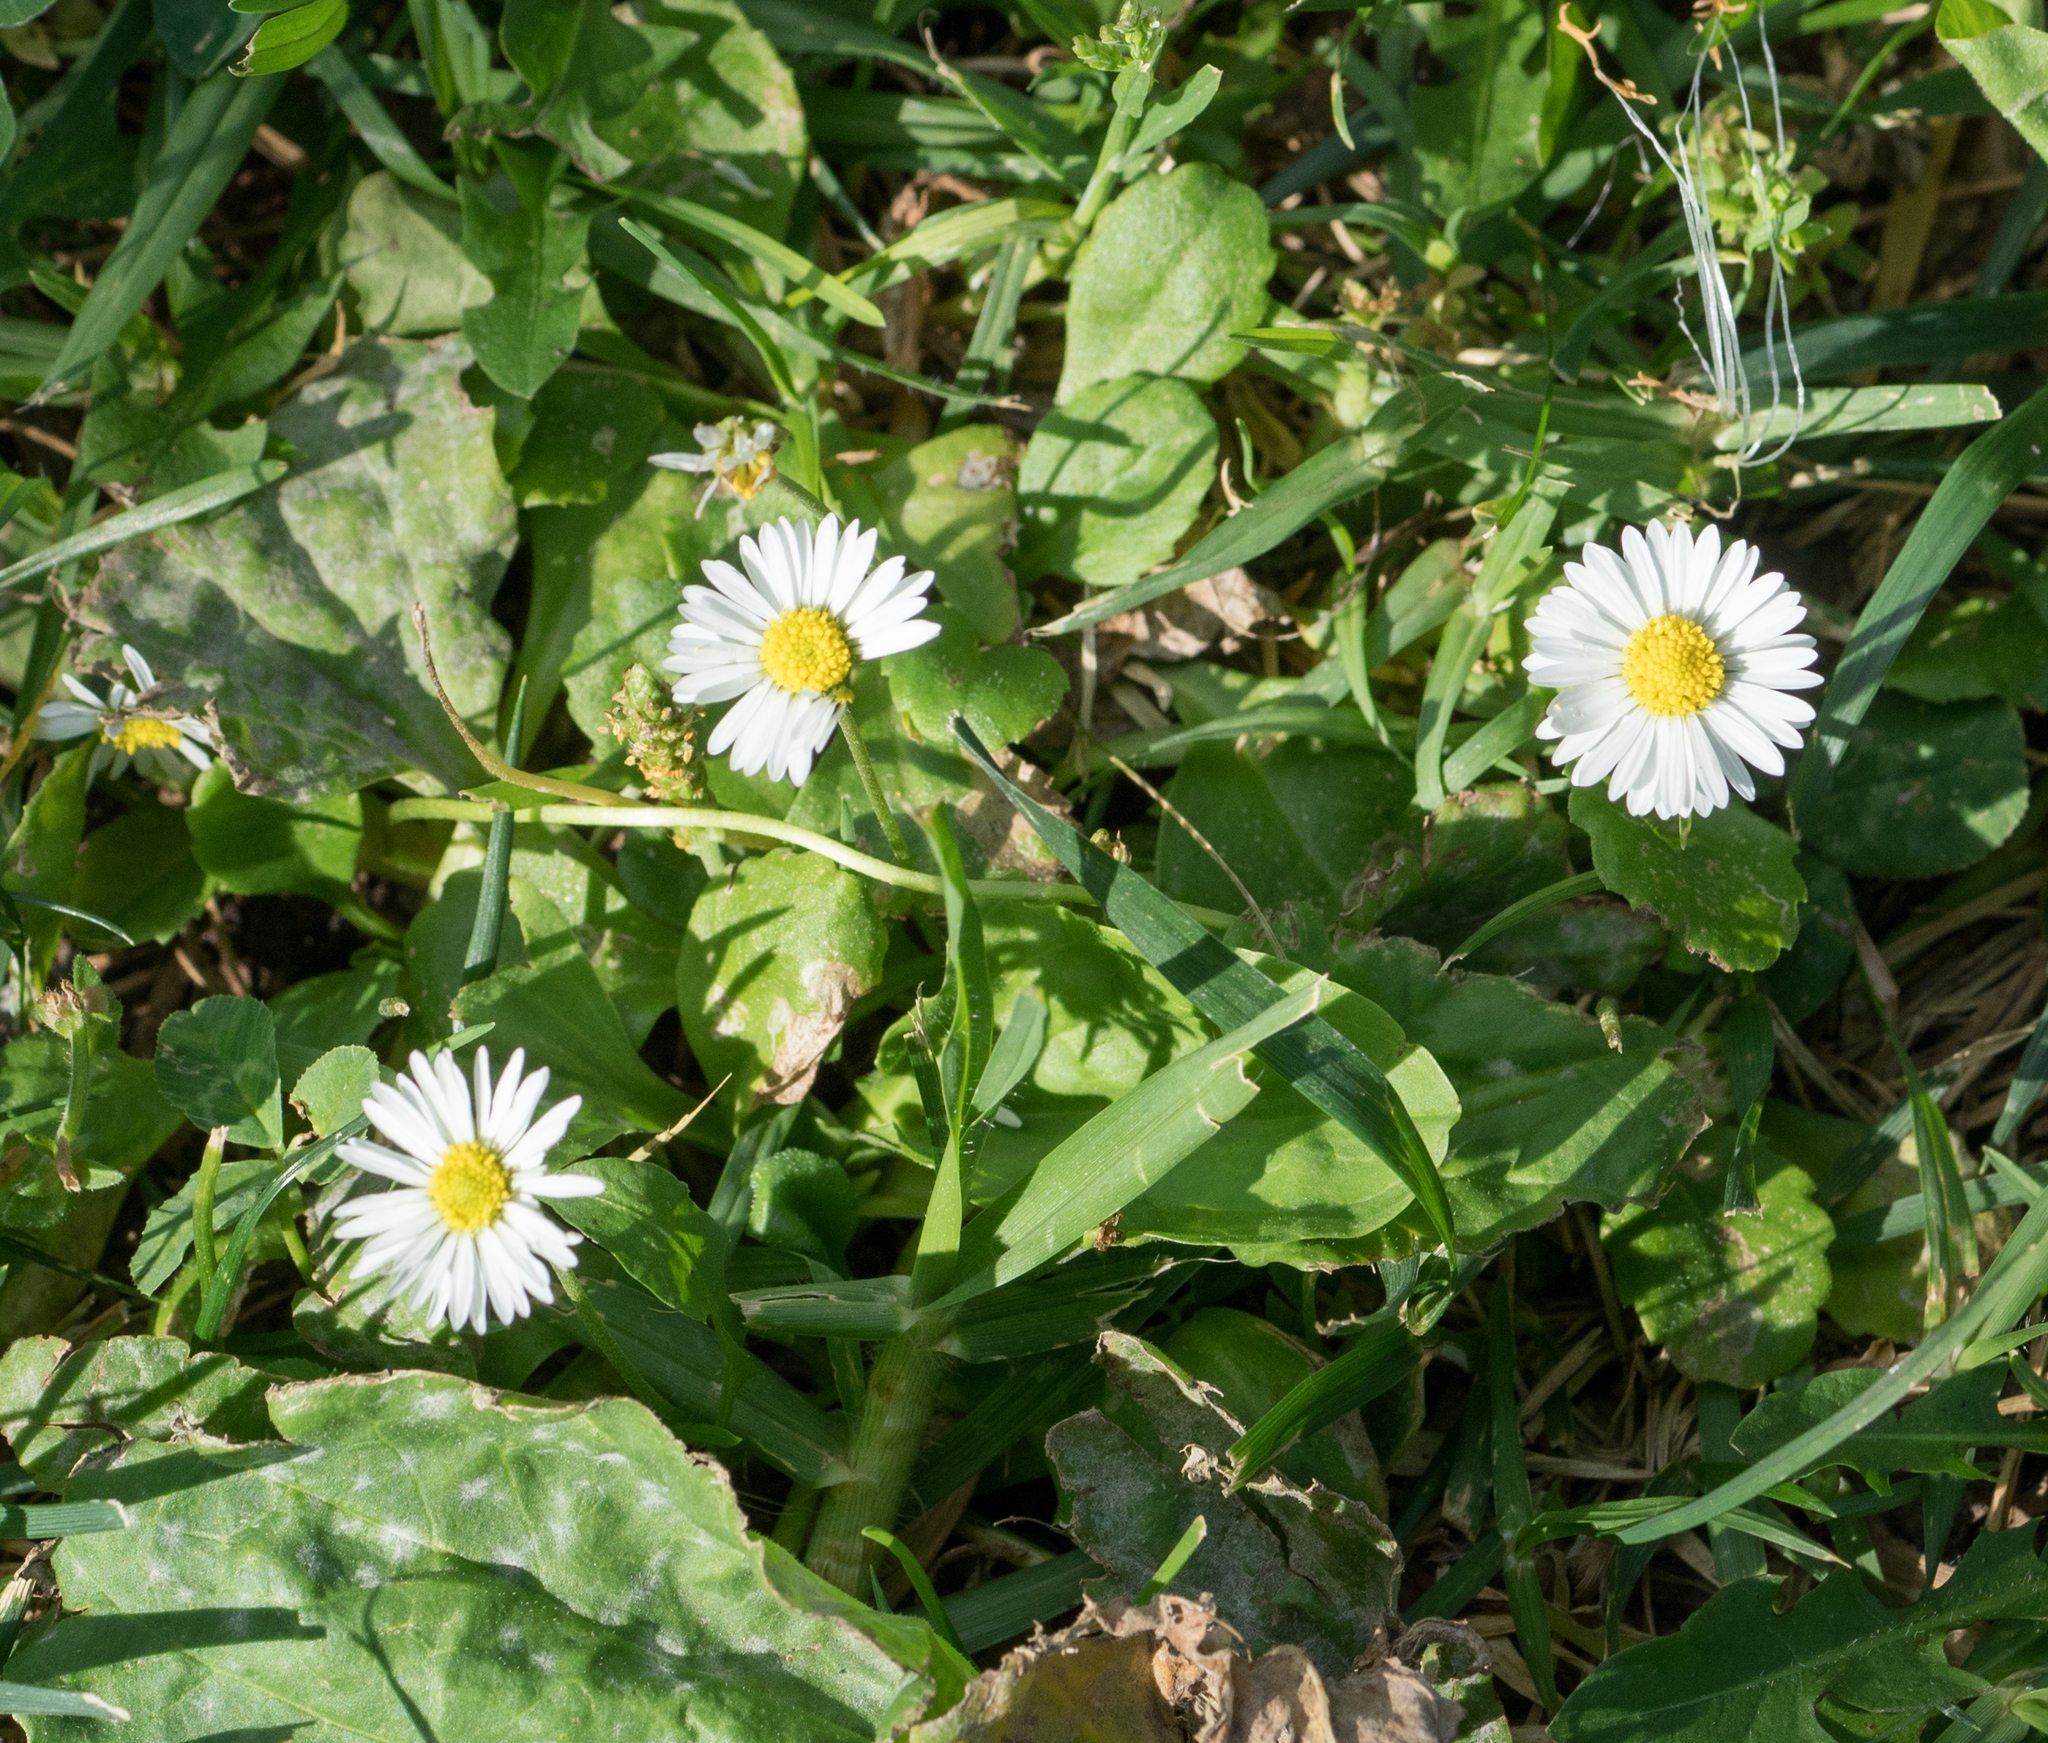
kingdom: Plantae
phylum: Tracheophyta
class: Magnoliopsida
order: Asterales
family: Asteraceae
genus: Bellis
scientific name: Bellis perennis
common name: Lawndaisy
